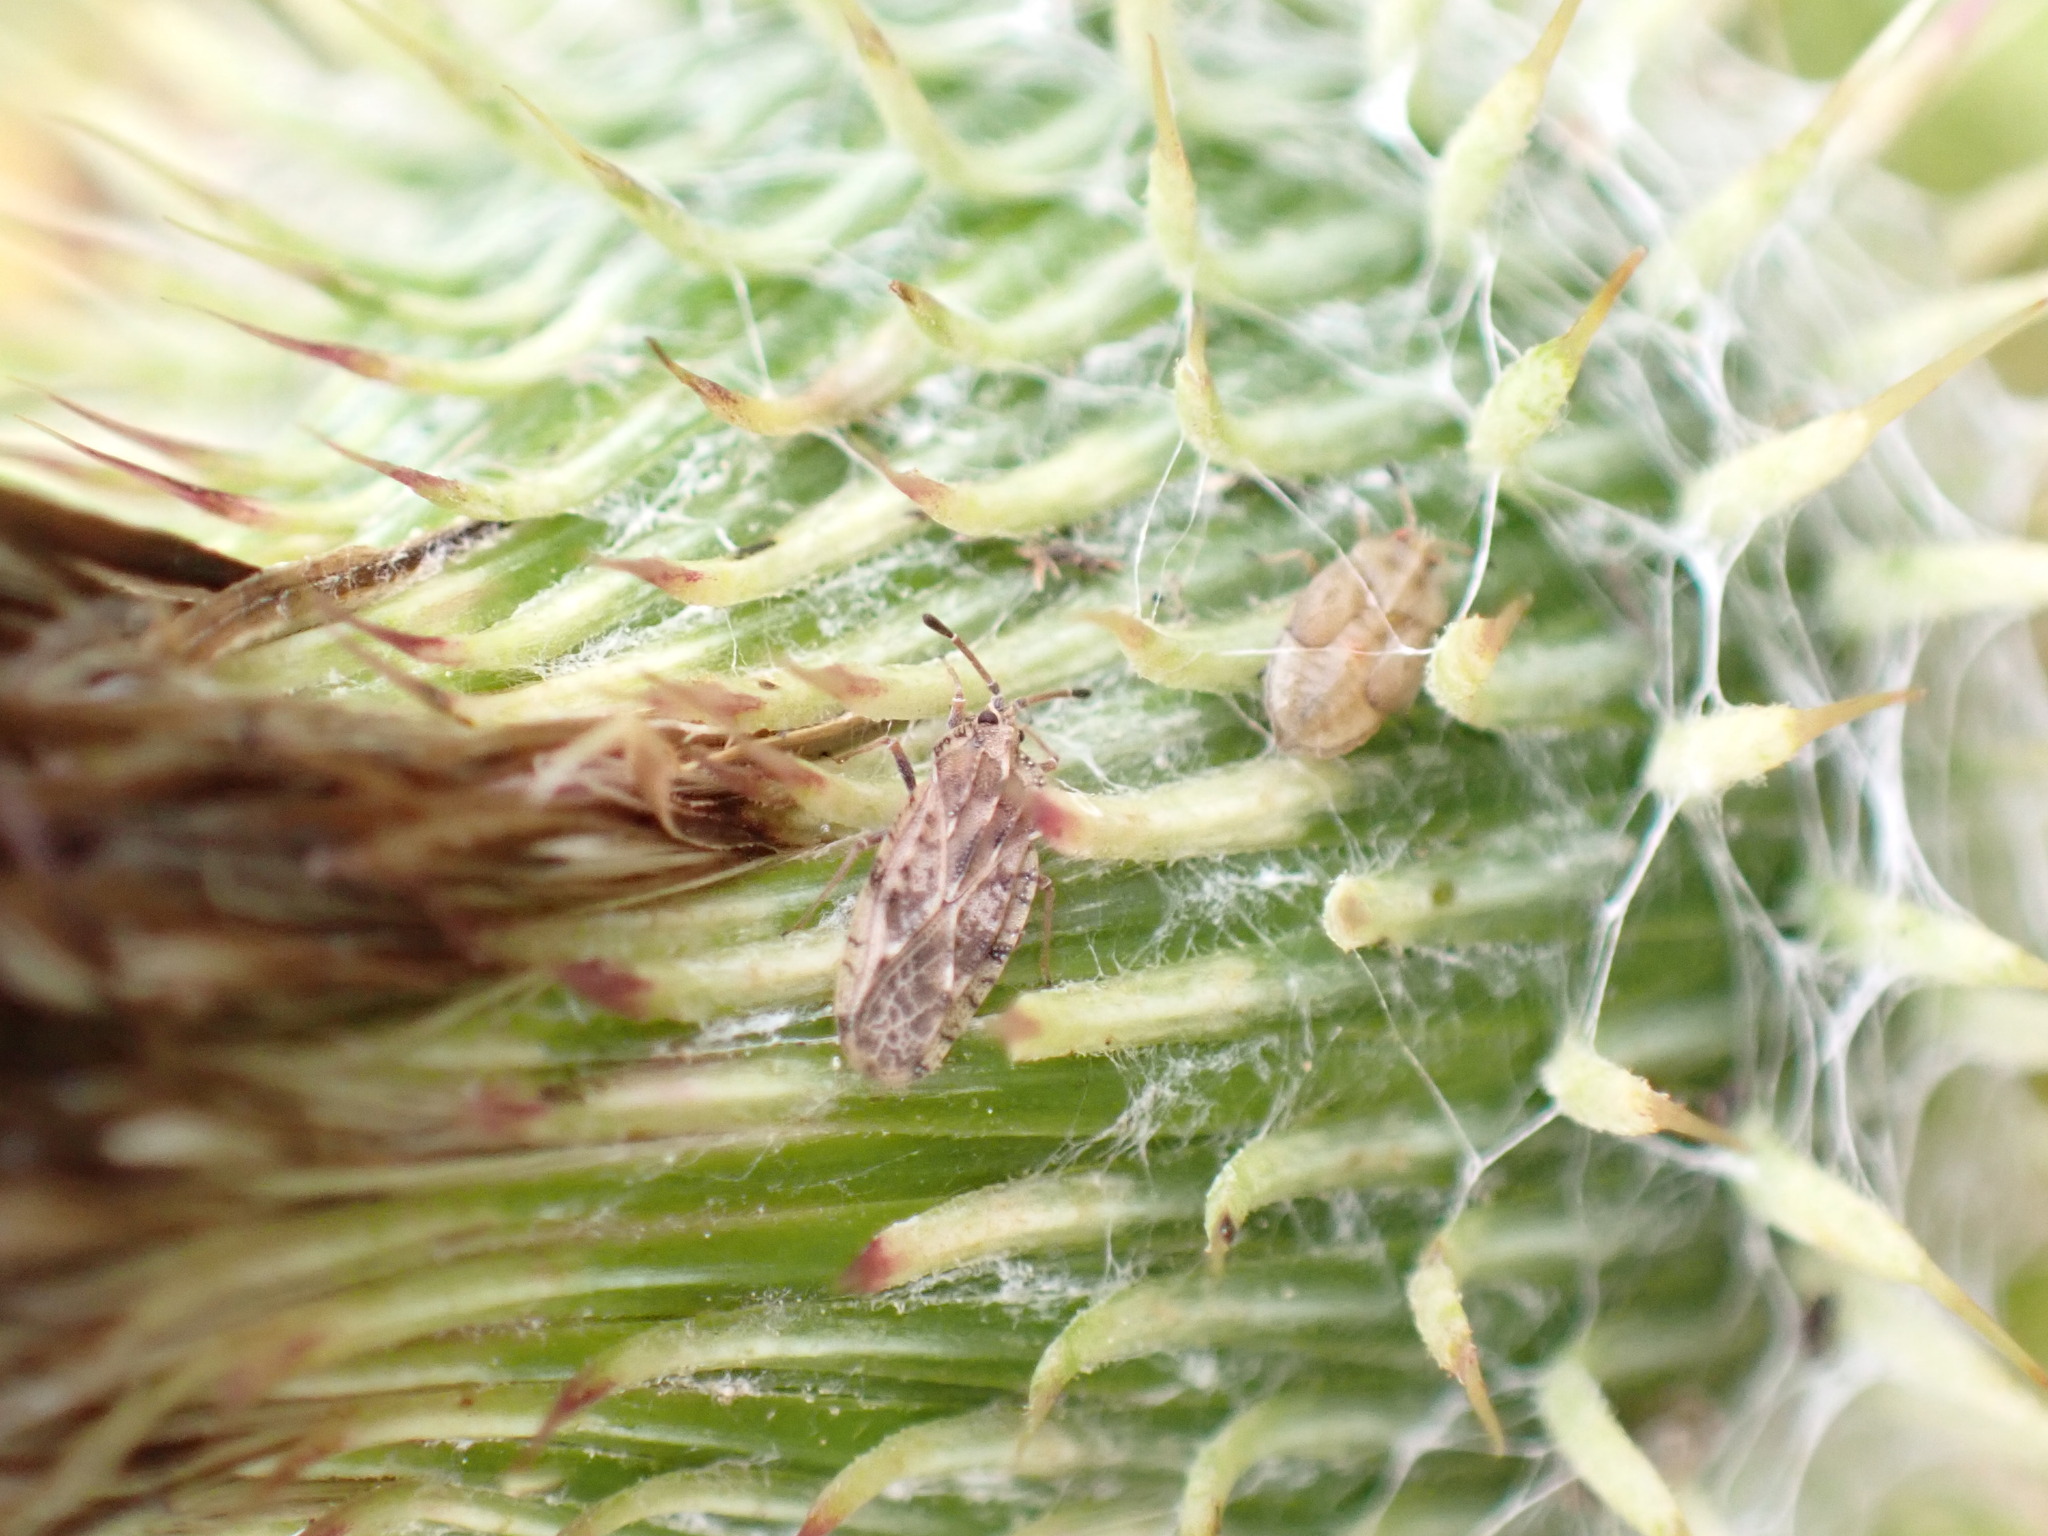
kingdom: Animalia
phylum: Arthropoda
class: Insecta
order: Hemiptera
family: Tingidae
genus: Tingis
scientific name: Tingis cardui
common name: Spear thistle lacebug
